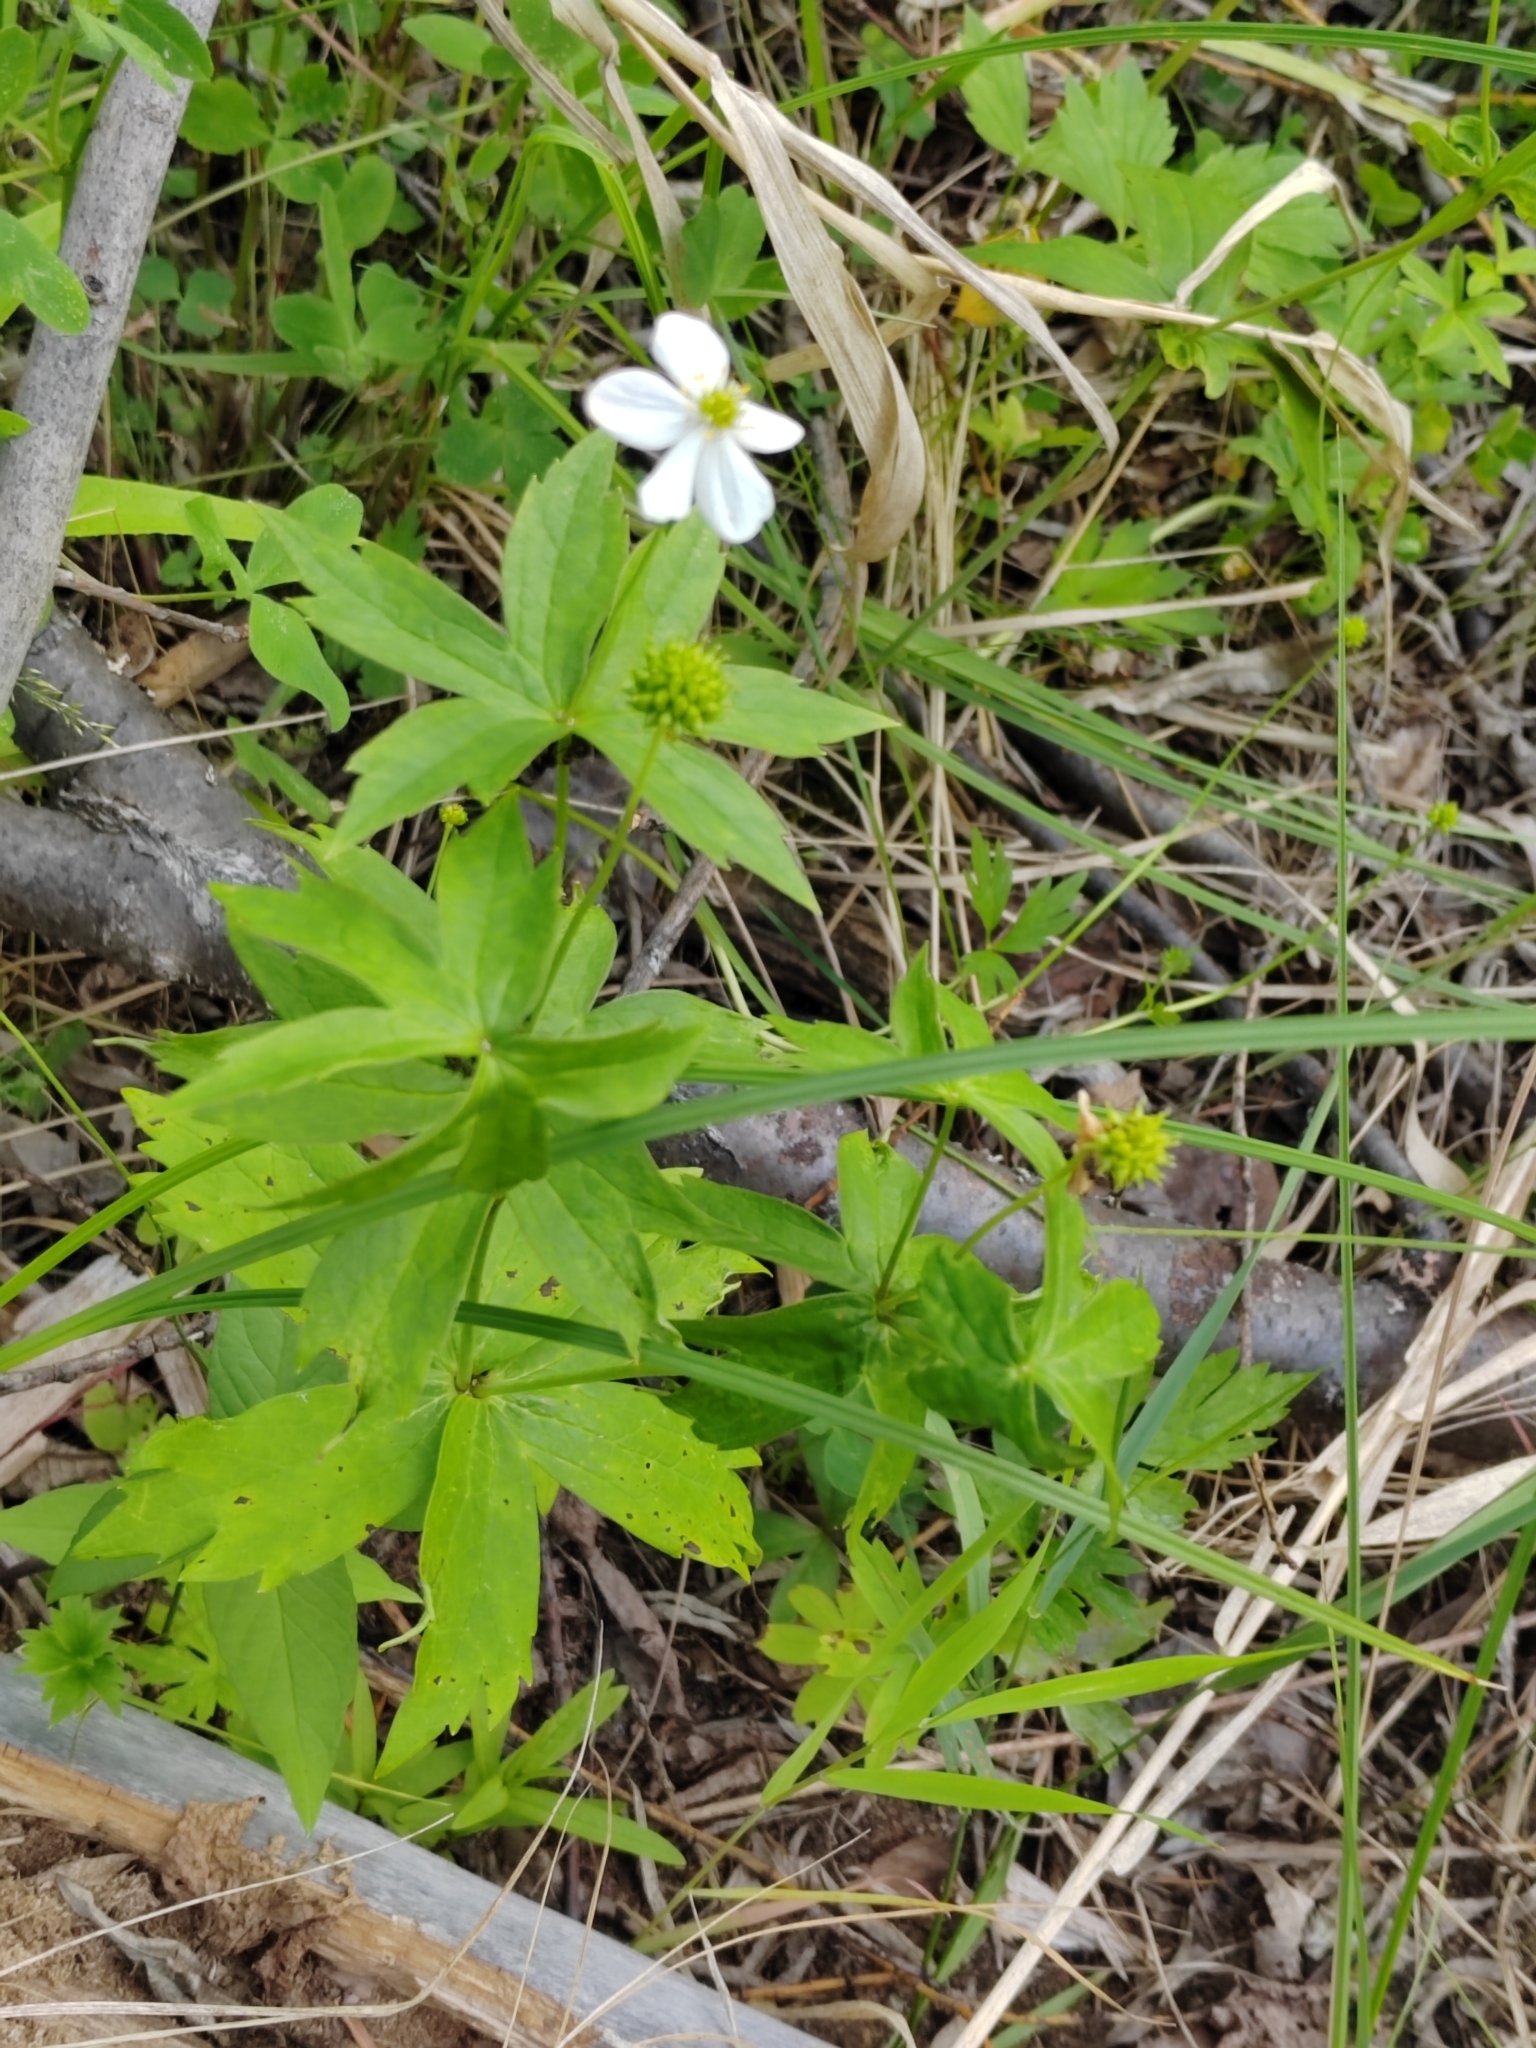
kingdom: Plantae
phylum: Tracheophyta
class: Magnoliopsida
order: Ranunculales
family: Ranunculaceae
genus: Anemonastrum
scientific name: Anemonastrum dichotomum
